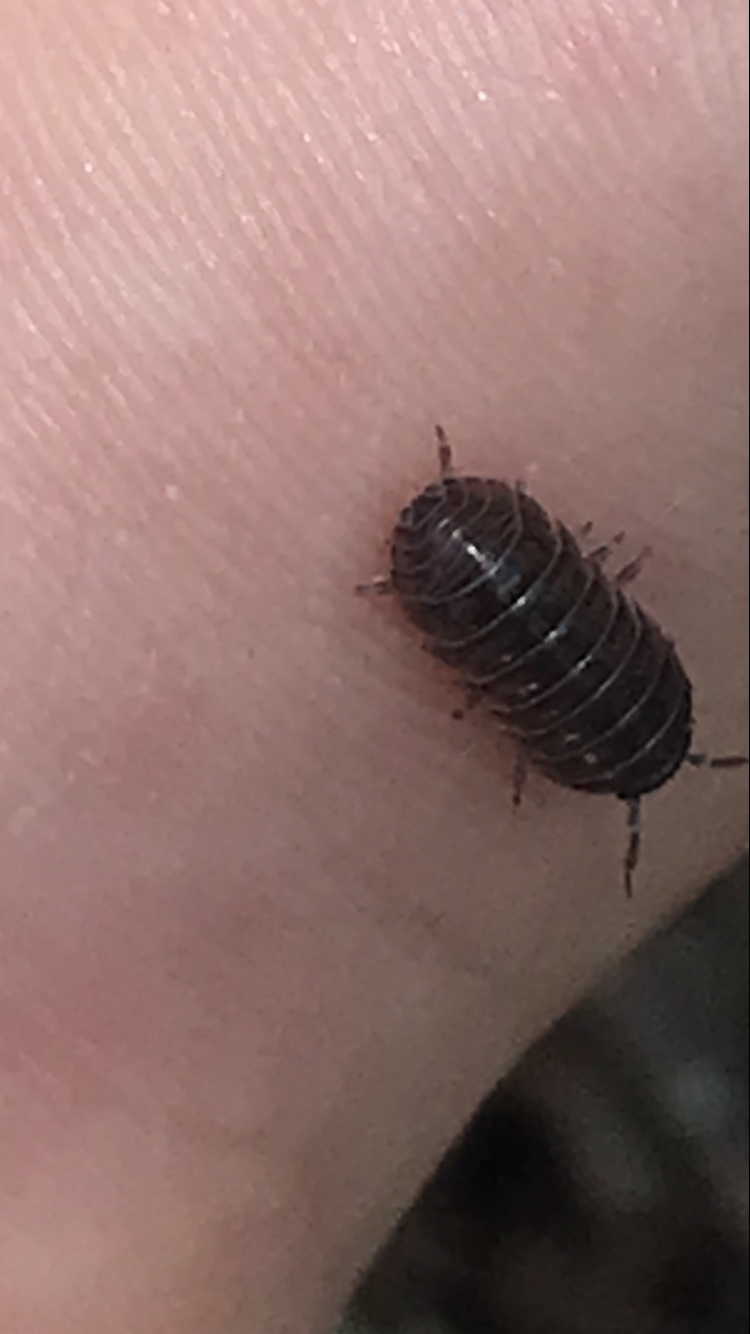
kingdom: Animalia
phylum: Arthropoda
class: Malacostraca
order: Isopoda
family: Armadillidiidae
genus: Armadillidium
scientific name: Armadillidium vulgare
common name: Common pill woodlouse
